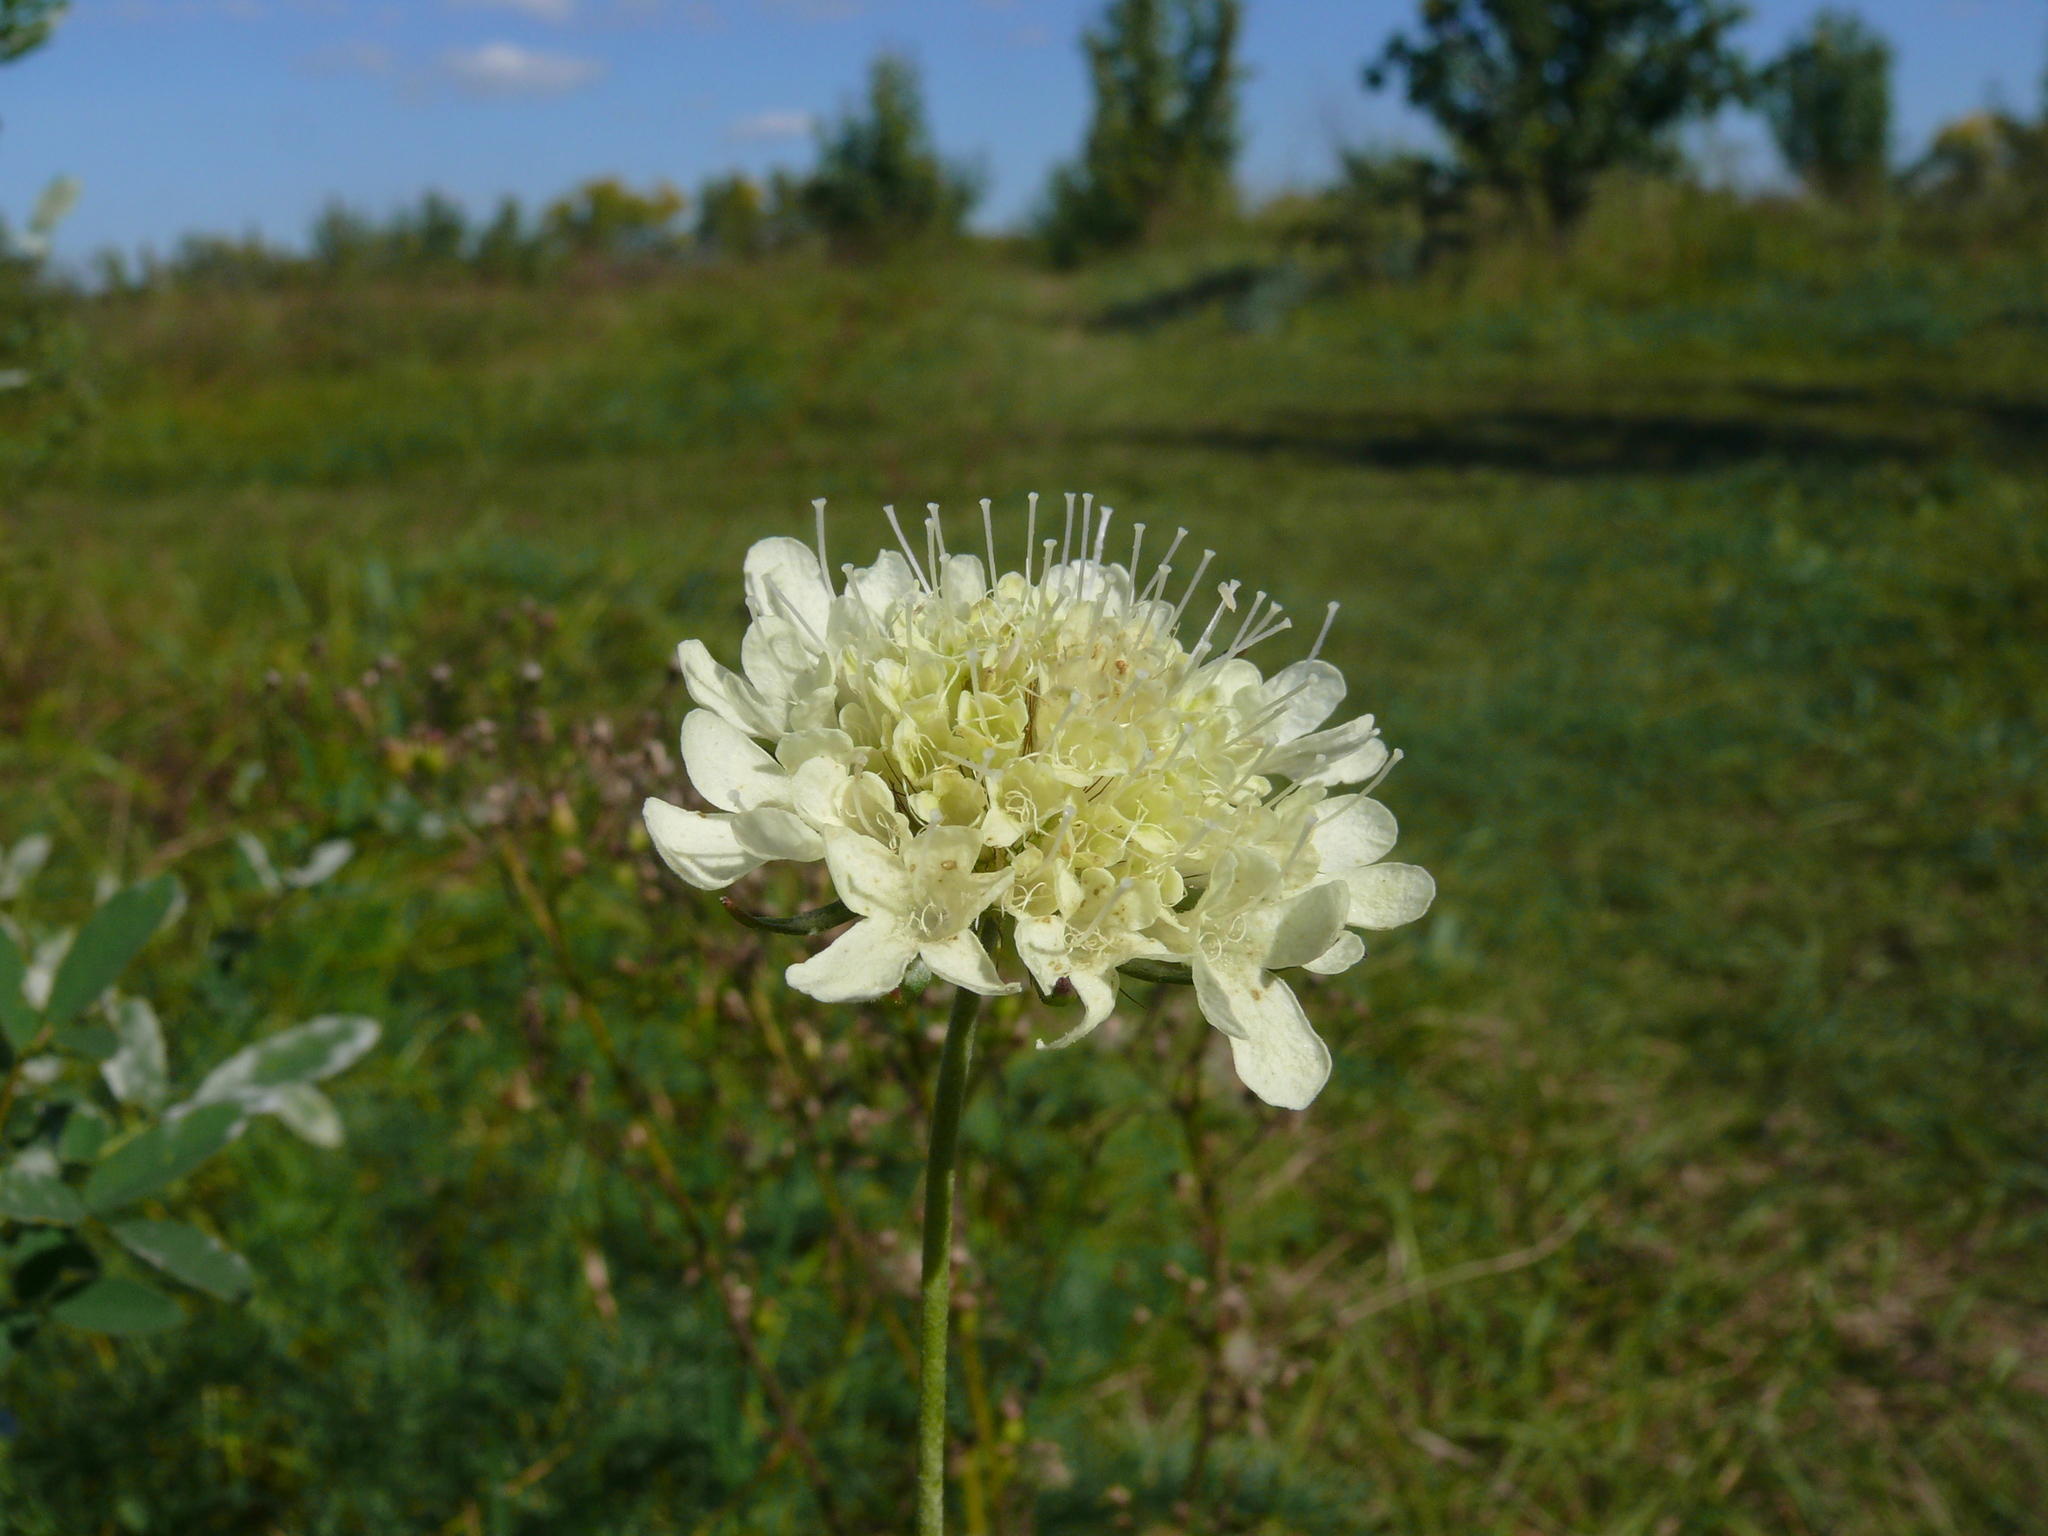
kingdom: Plantae
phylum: Tracheophyta
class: Magnoliopsida
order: Dipsacales
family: Caprifoliaceae
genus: Scabiosa
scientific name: Scabiosa ochroleuca
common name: Cream pincushions
